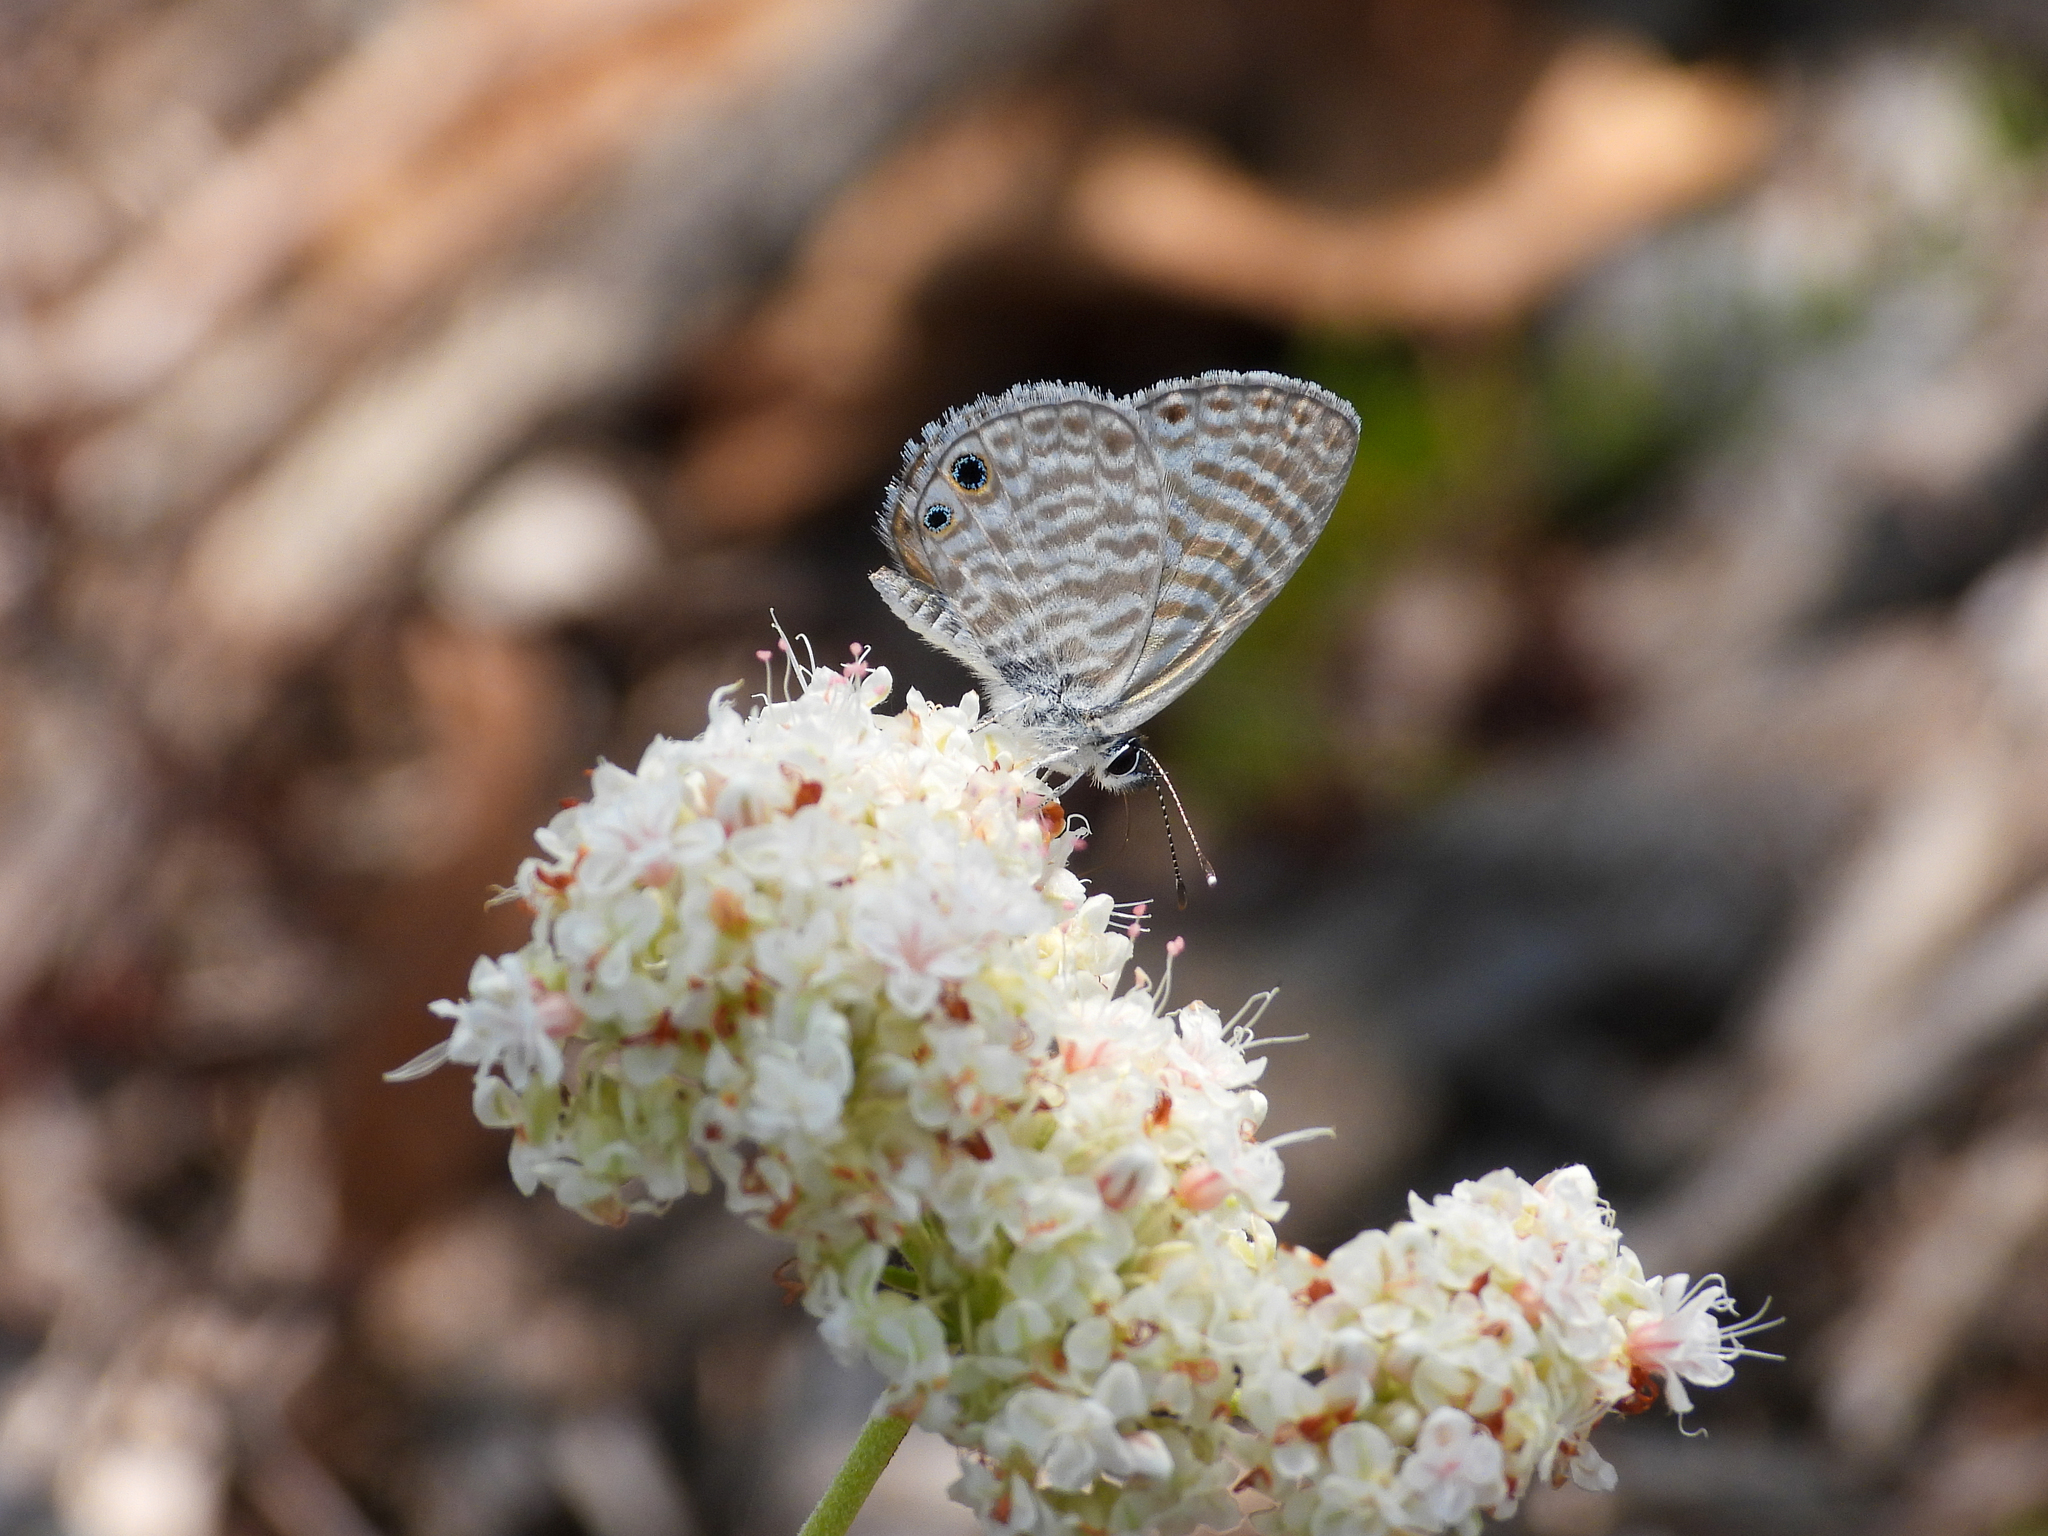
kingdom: Animalia
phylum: Arthropoda
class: Insecta
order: Lepidoptera
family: Lycaenidae
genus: Leptotes
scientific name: Leptotes marina
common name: Marine blue
